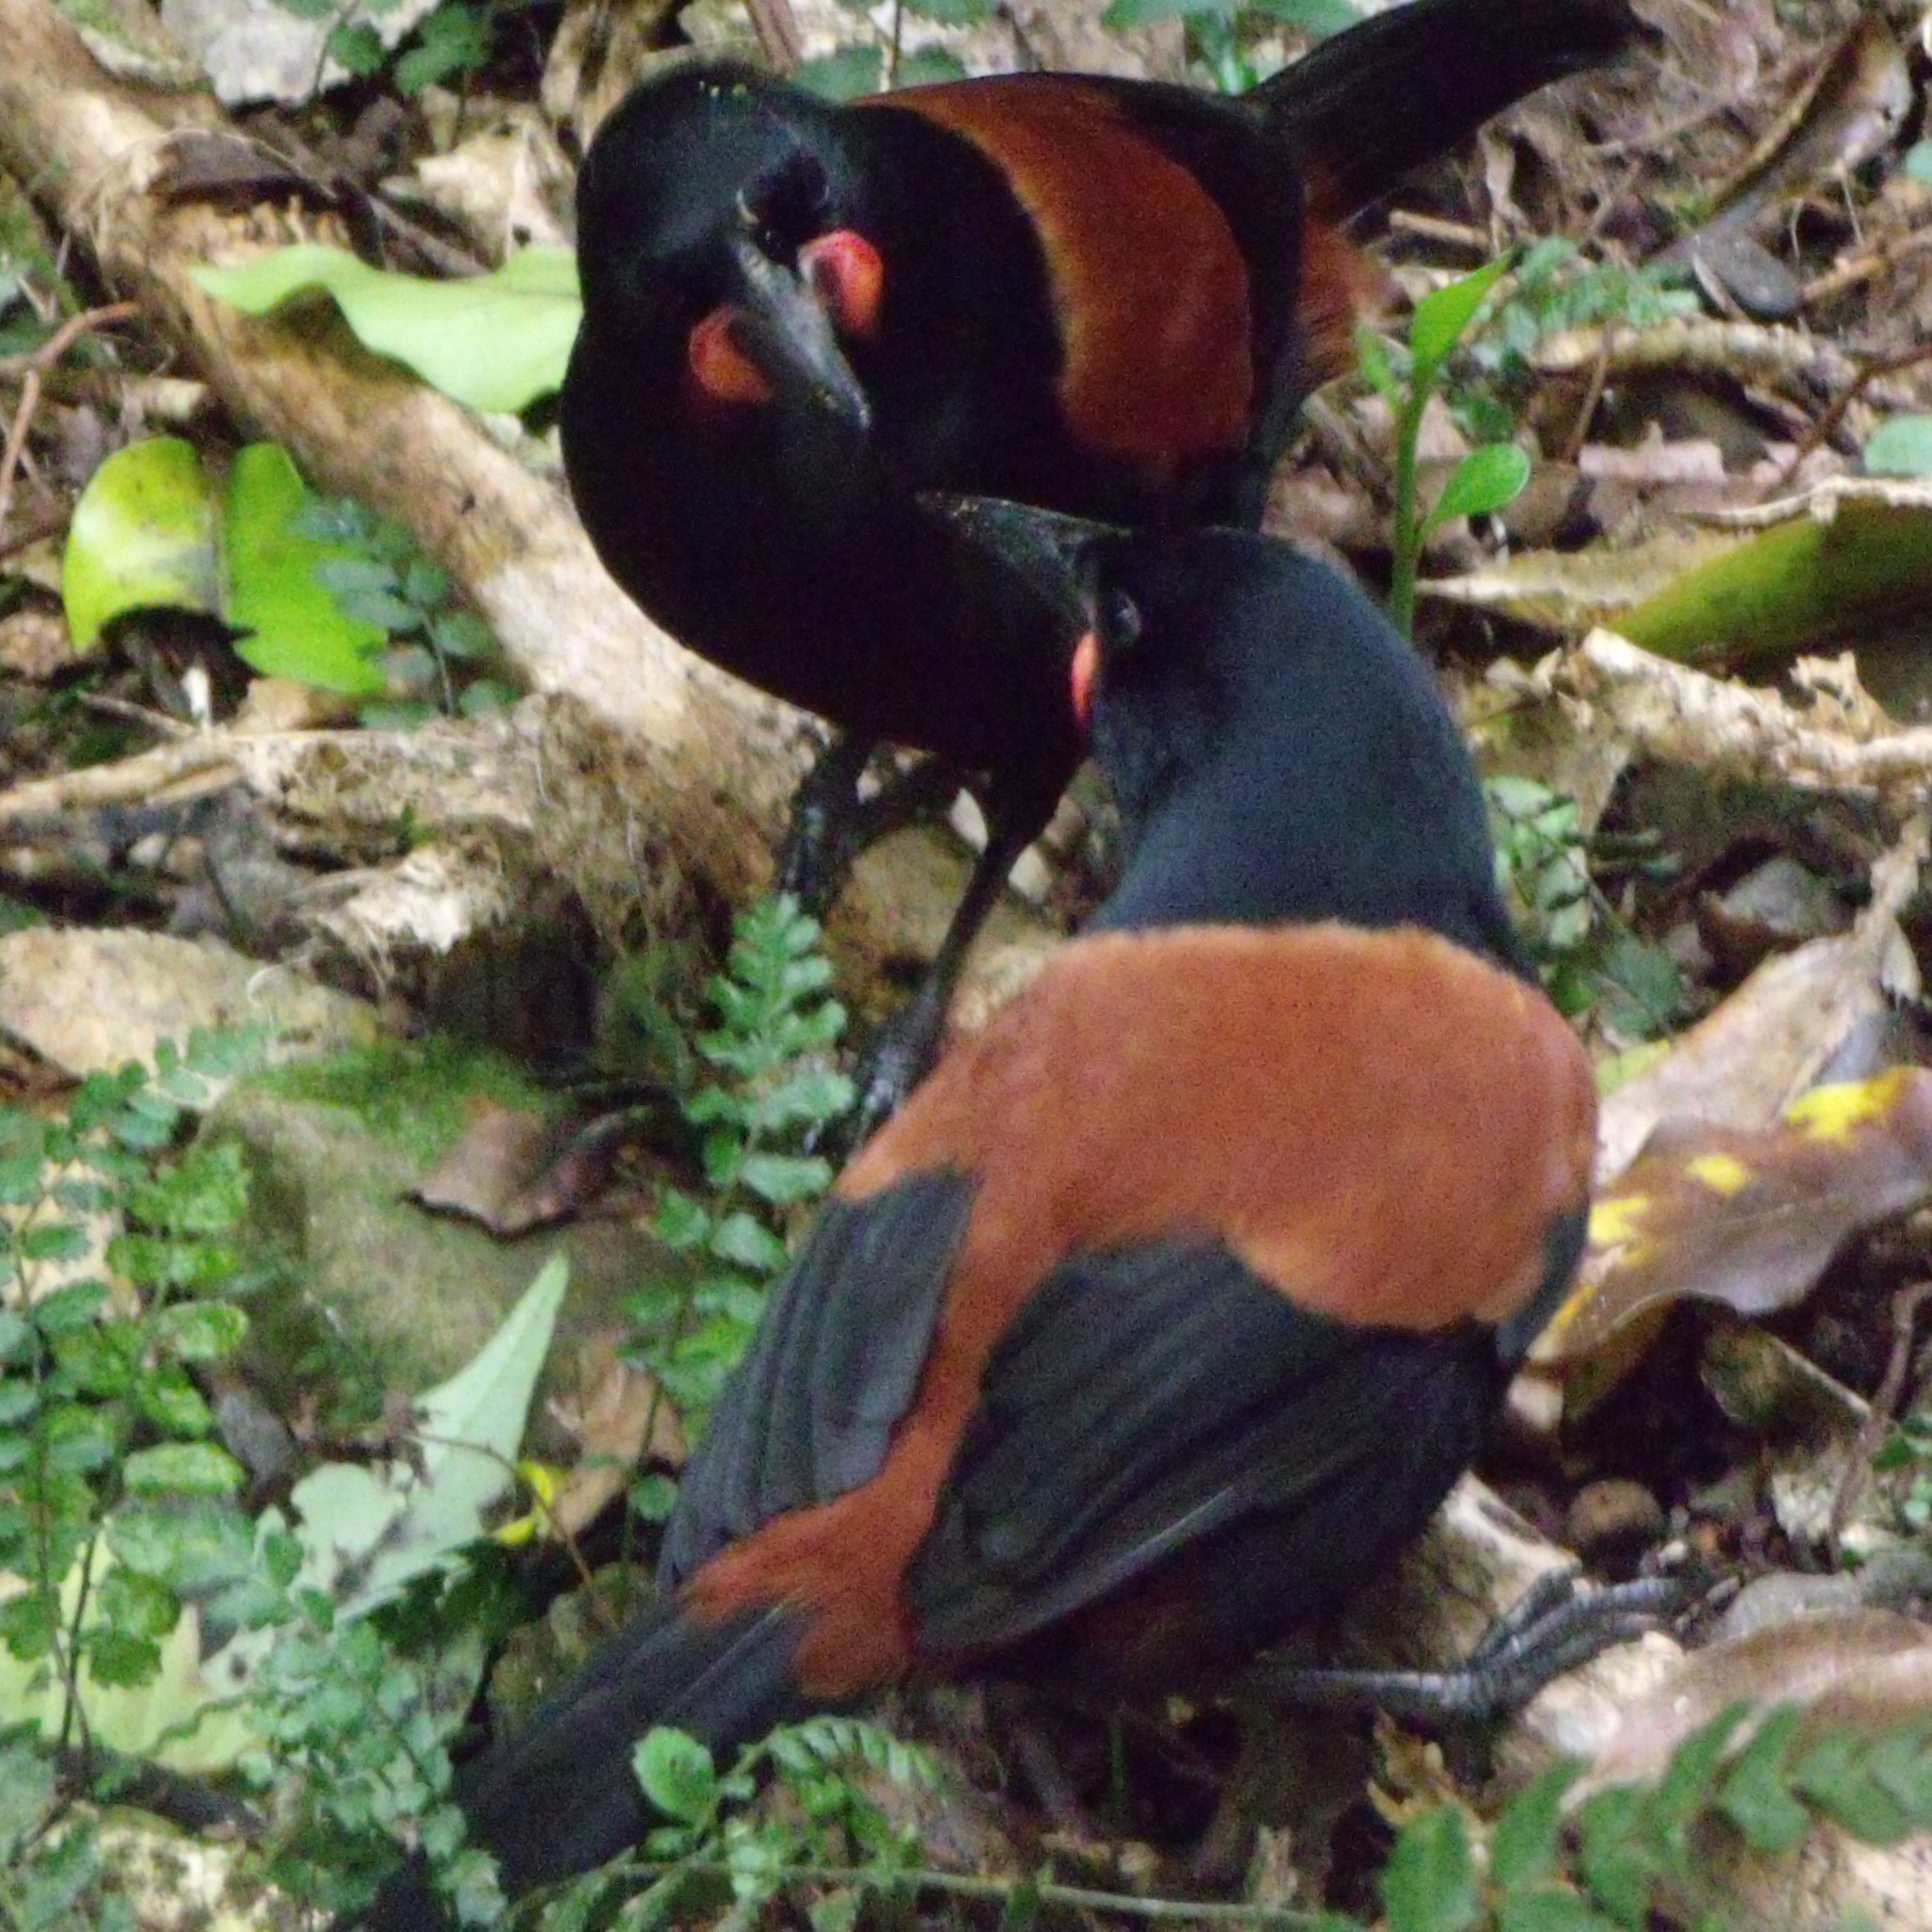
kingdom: Animalia
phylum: Chordata
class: Aves
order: Passeriformes
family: Callaeatidae
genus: Philesturnus
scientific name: Philesturnus carunculatus
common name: South island saddleback
